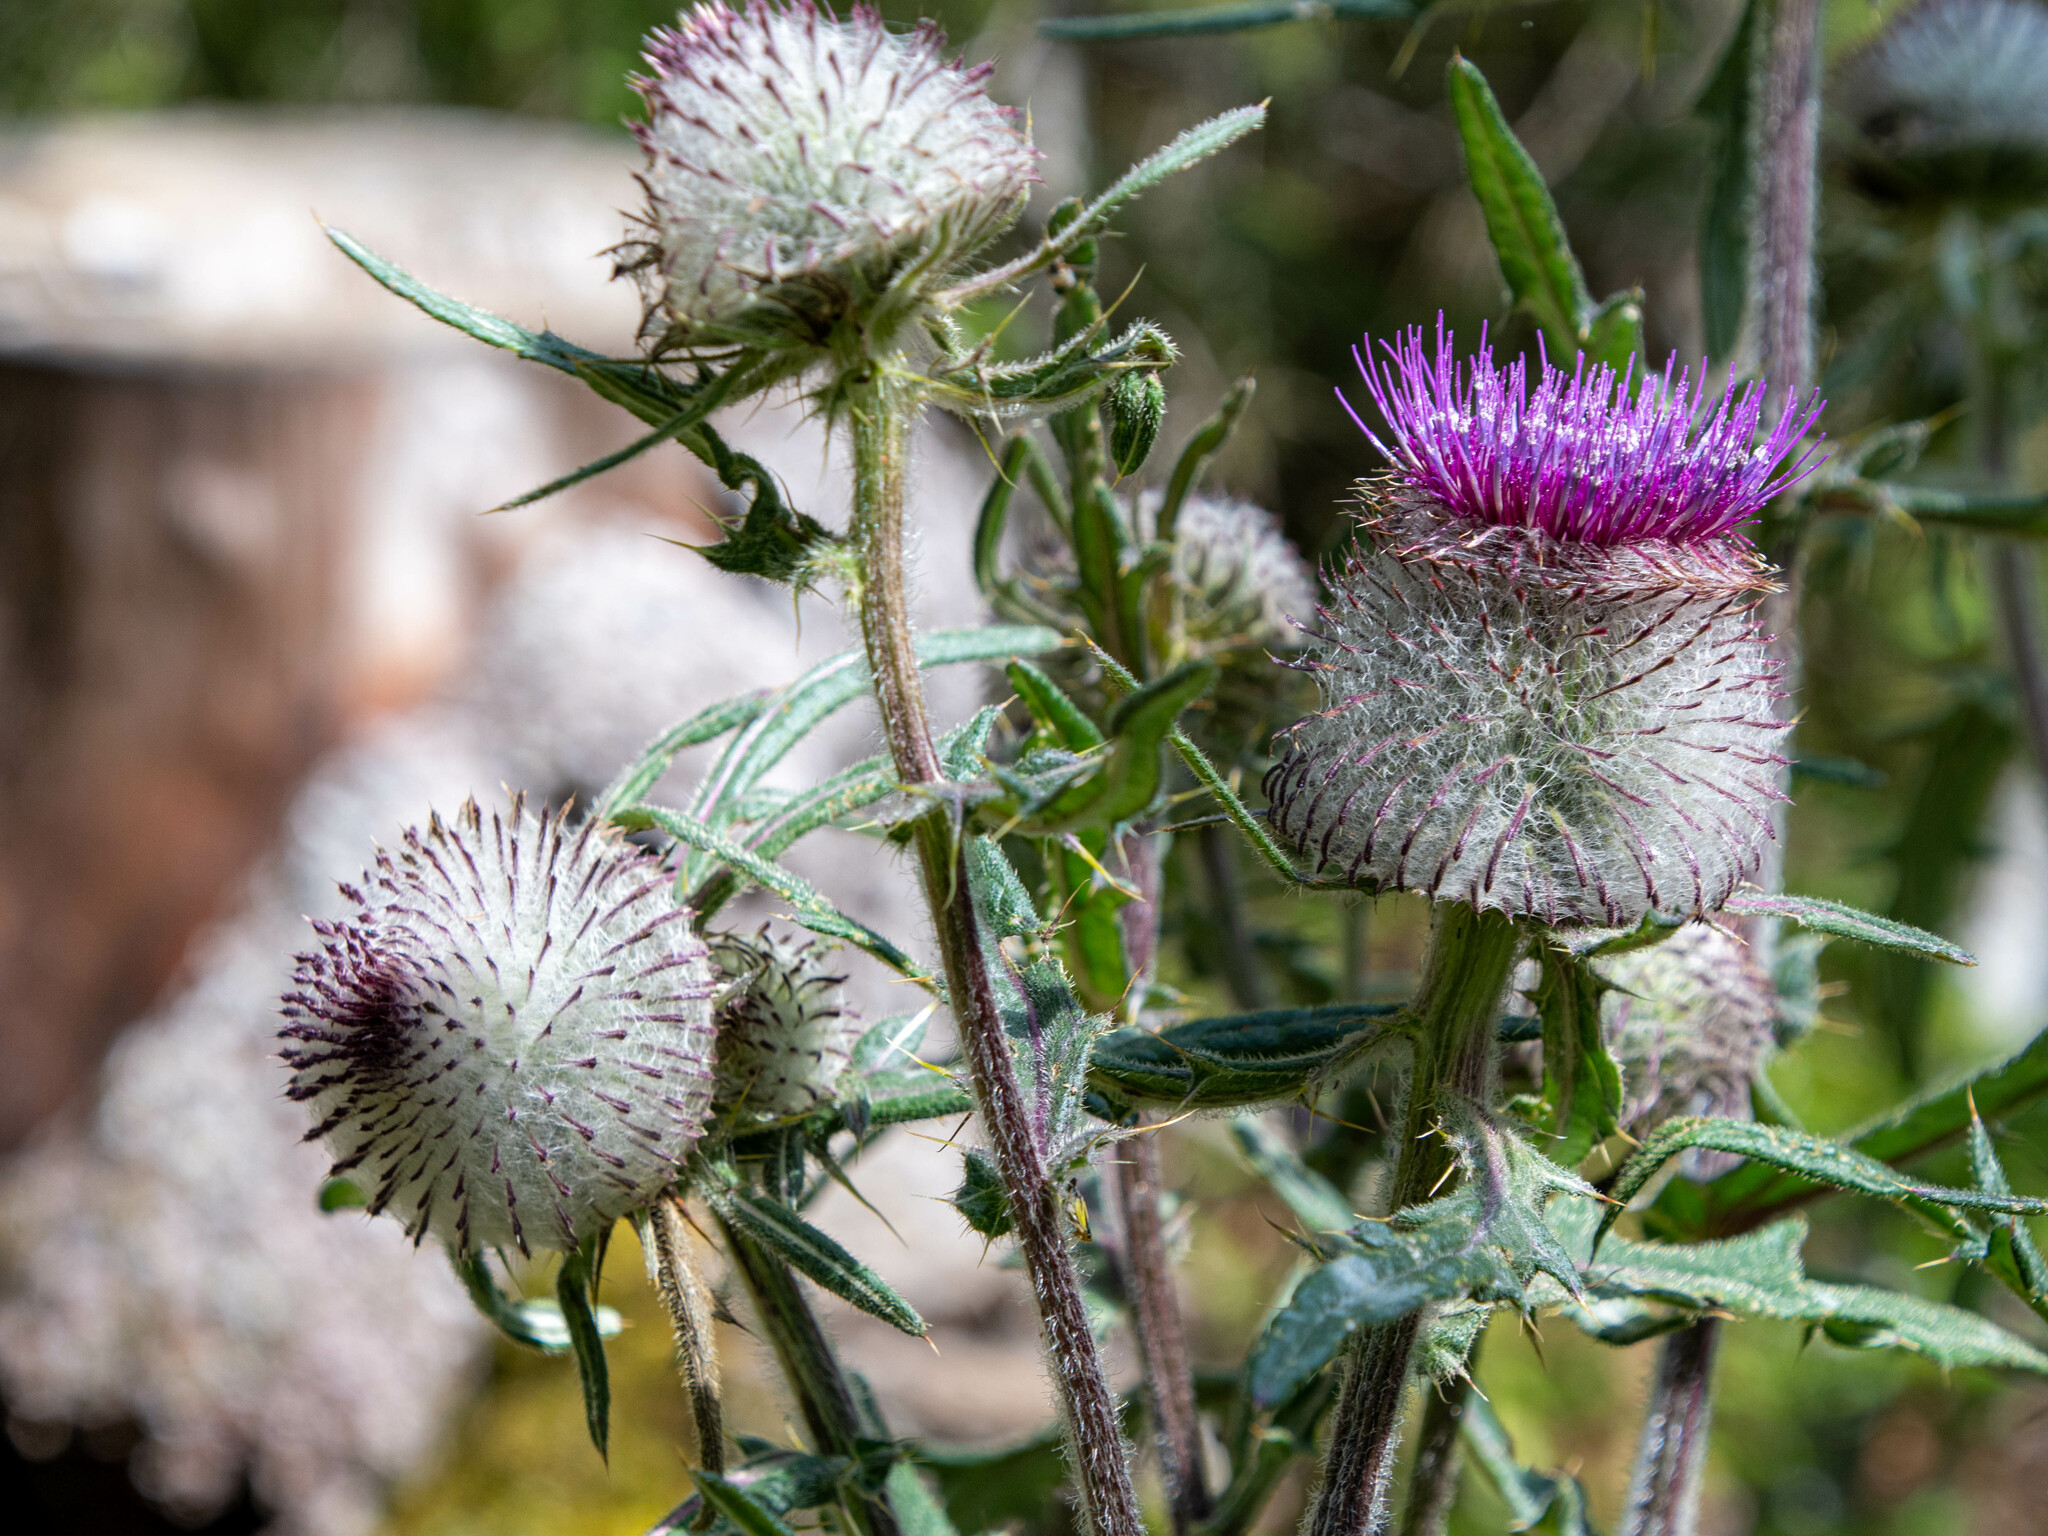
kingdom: Plantae
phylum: Tracheophyta
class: Magnoliopsida
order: Asterales
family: Asteraceae
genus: Lophiolepis
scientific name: Lophiolepis eriophora
